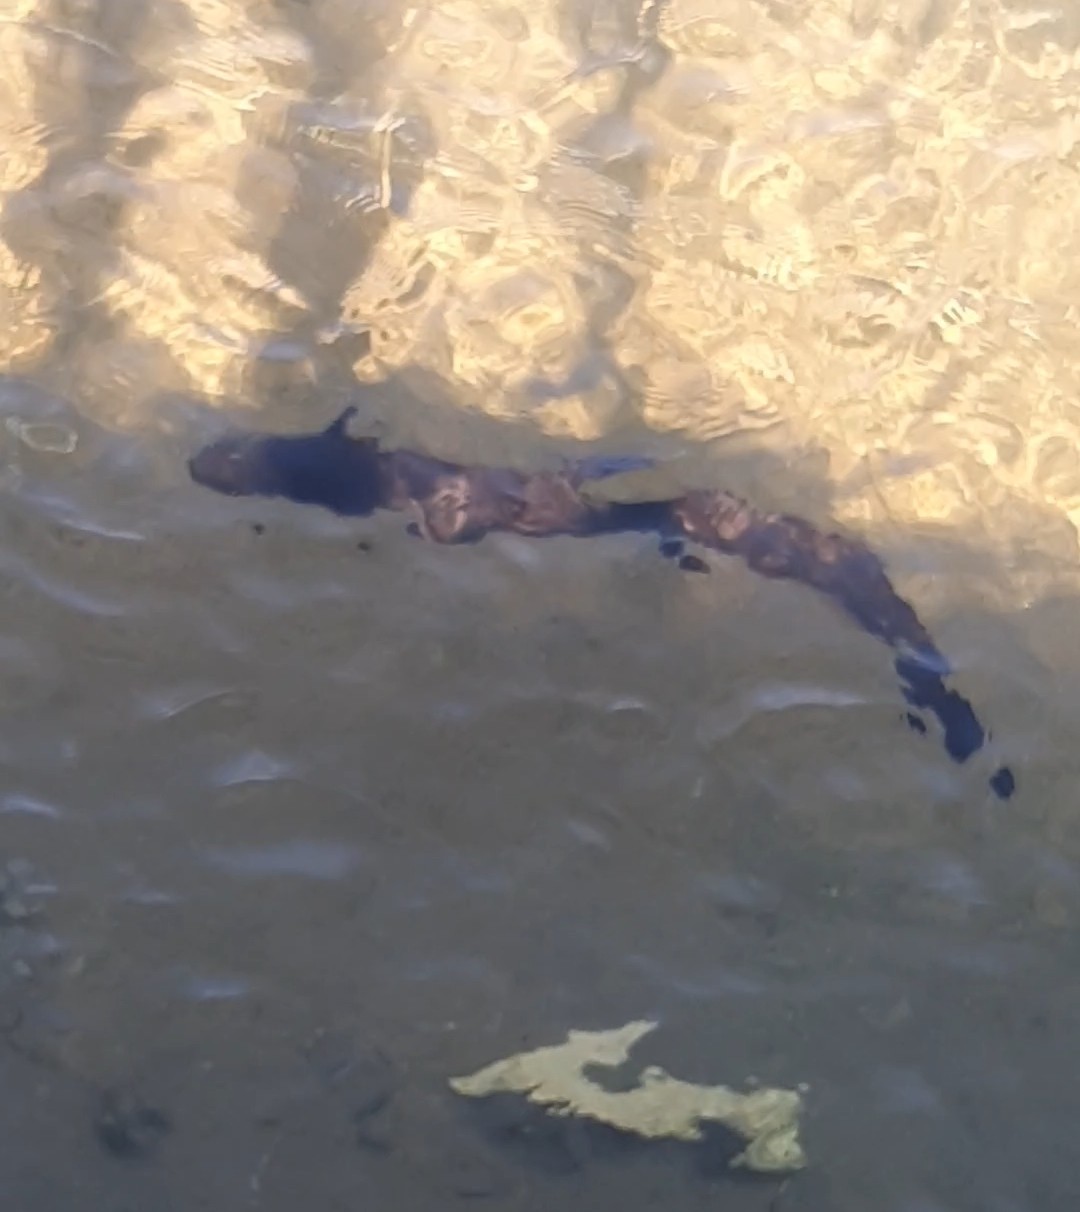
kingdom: Animalia
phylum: Chordata
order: Anguilliformes
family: Anguillidae
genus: Anguilla
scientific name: Anguilla dieffenbachii
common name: New zealand longfin eel
